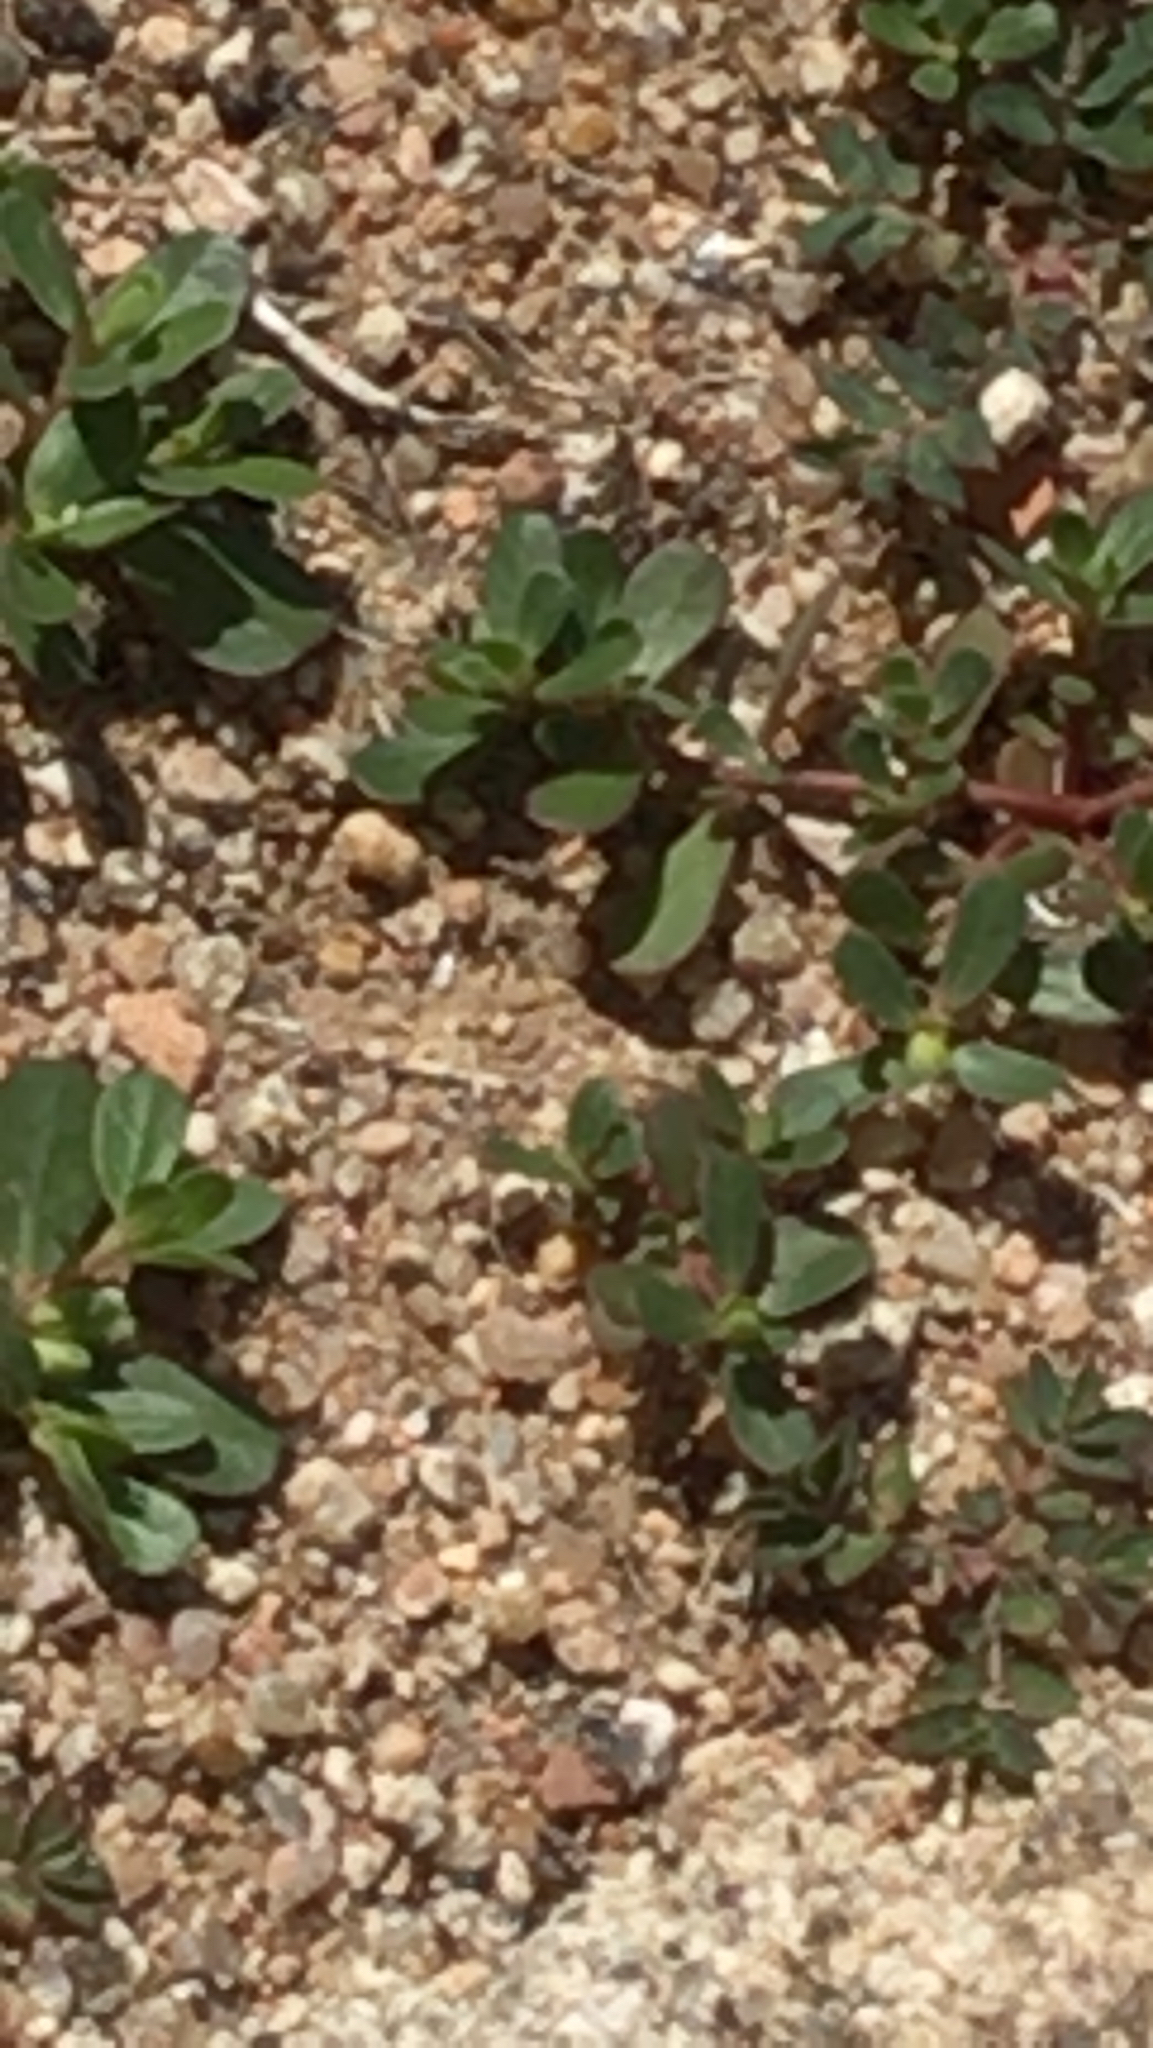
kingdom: Plantae
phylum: Tracheophyta
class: Magnoliopsida
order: Caryophyllales
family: Portulacaceae
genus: Portulaca
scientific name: Portulaca oleracea
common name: Common purslane
